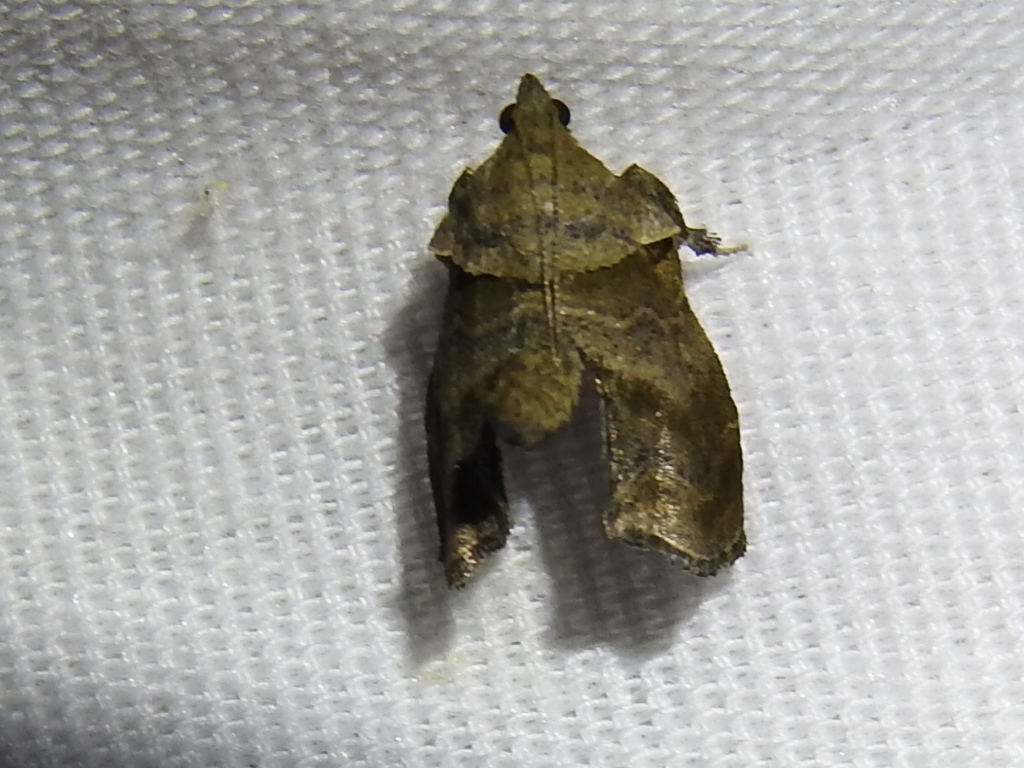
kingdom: Animalia
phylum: Arthropoda
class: Insecta
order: Lepidoptera
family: Pyralidae
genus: Tosale
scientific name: Tosale aucta
